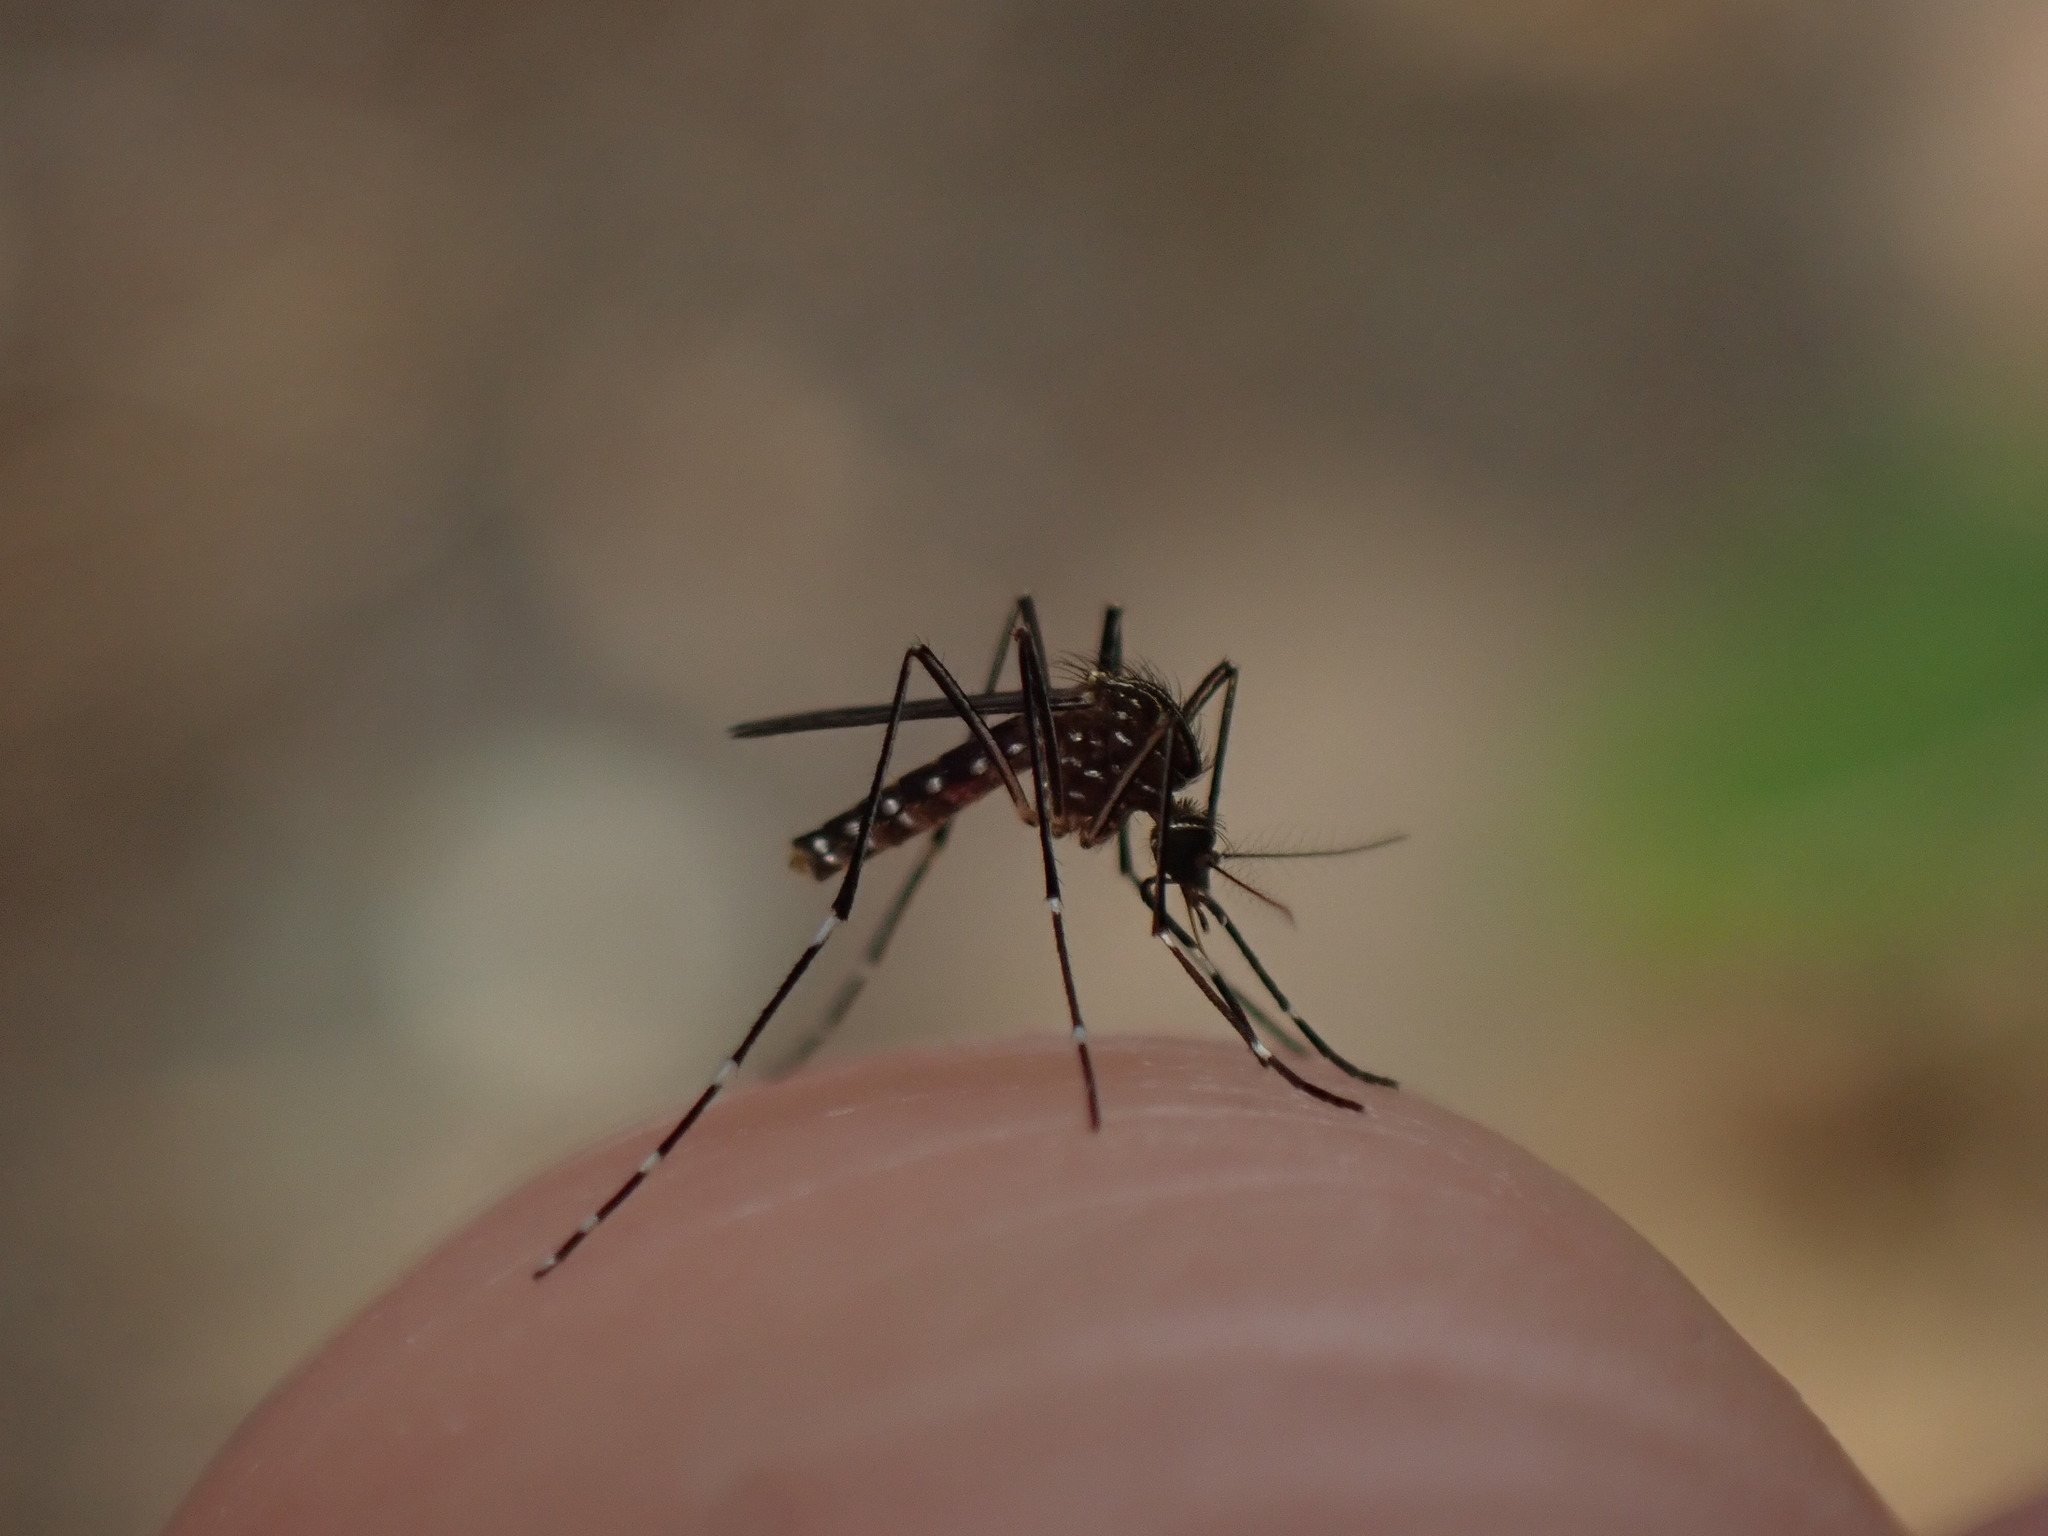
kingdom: Animalia
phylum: Arthropoda
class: Insecta
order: Diptera
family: Culicidae
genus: Aedes
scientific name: Aedes notoscriptus
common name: Australian backyard mosquito
